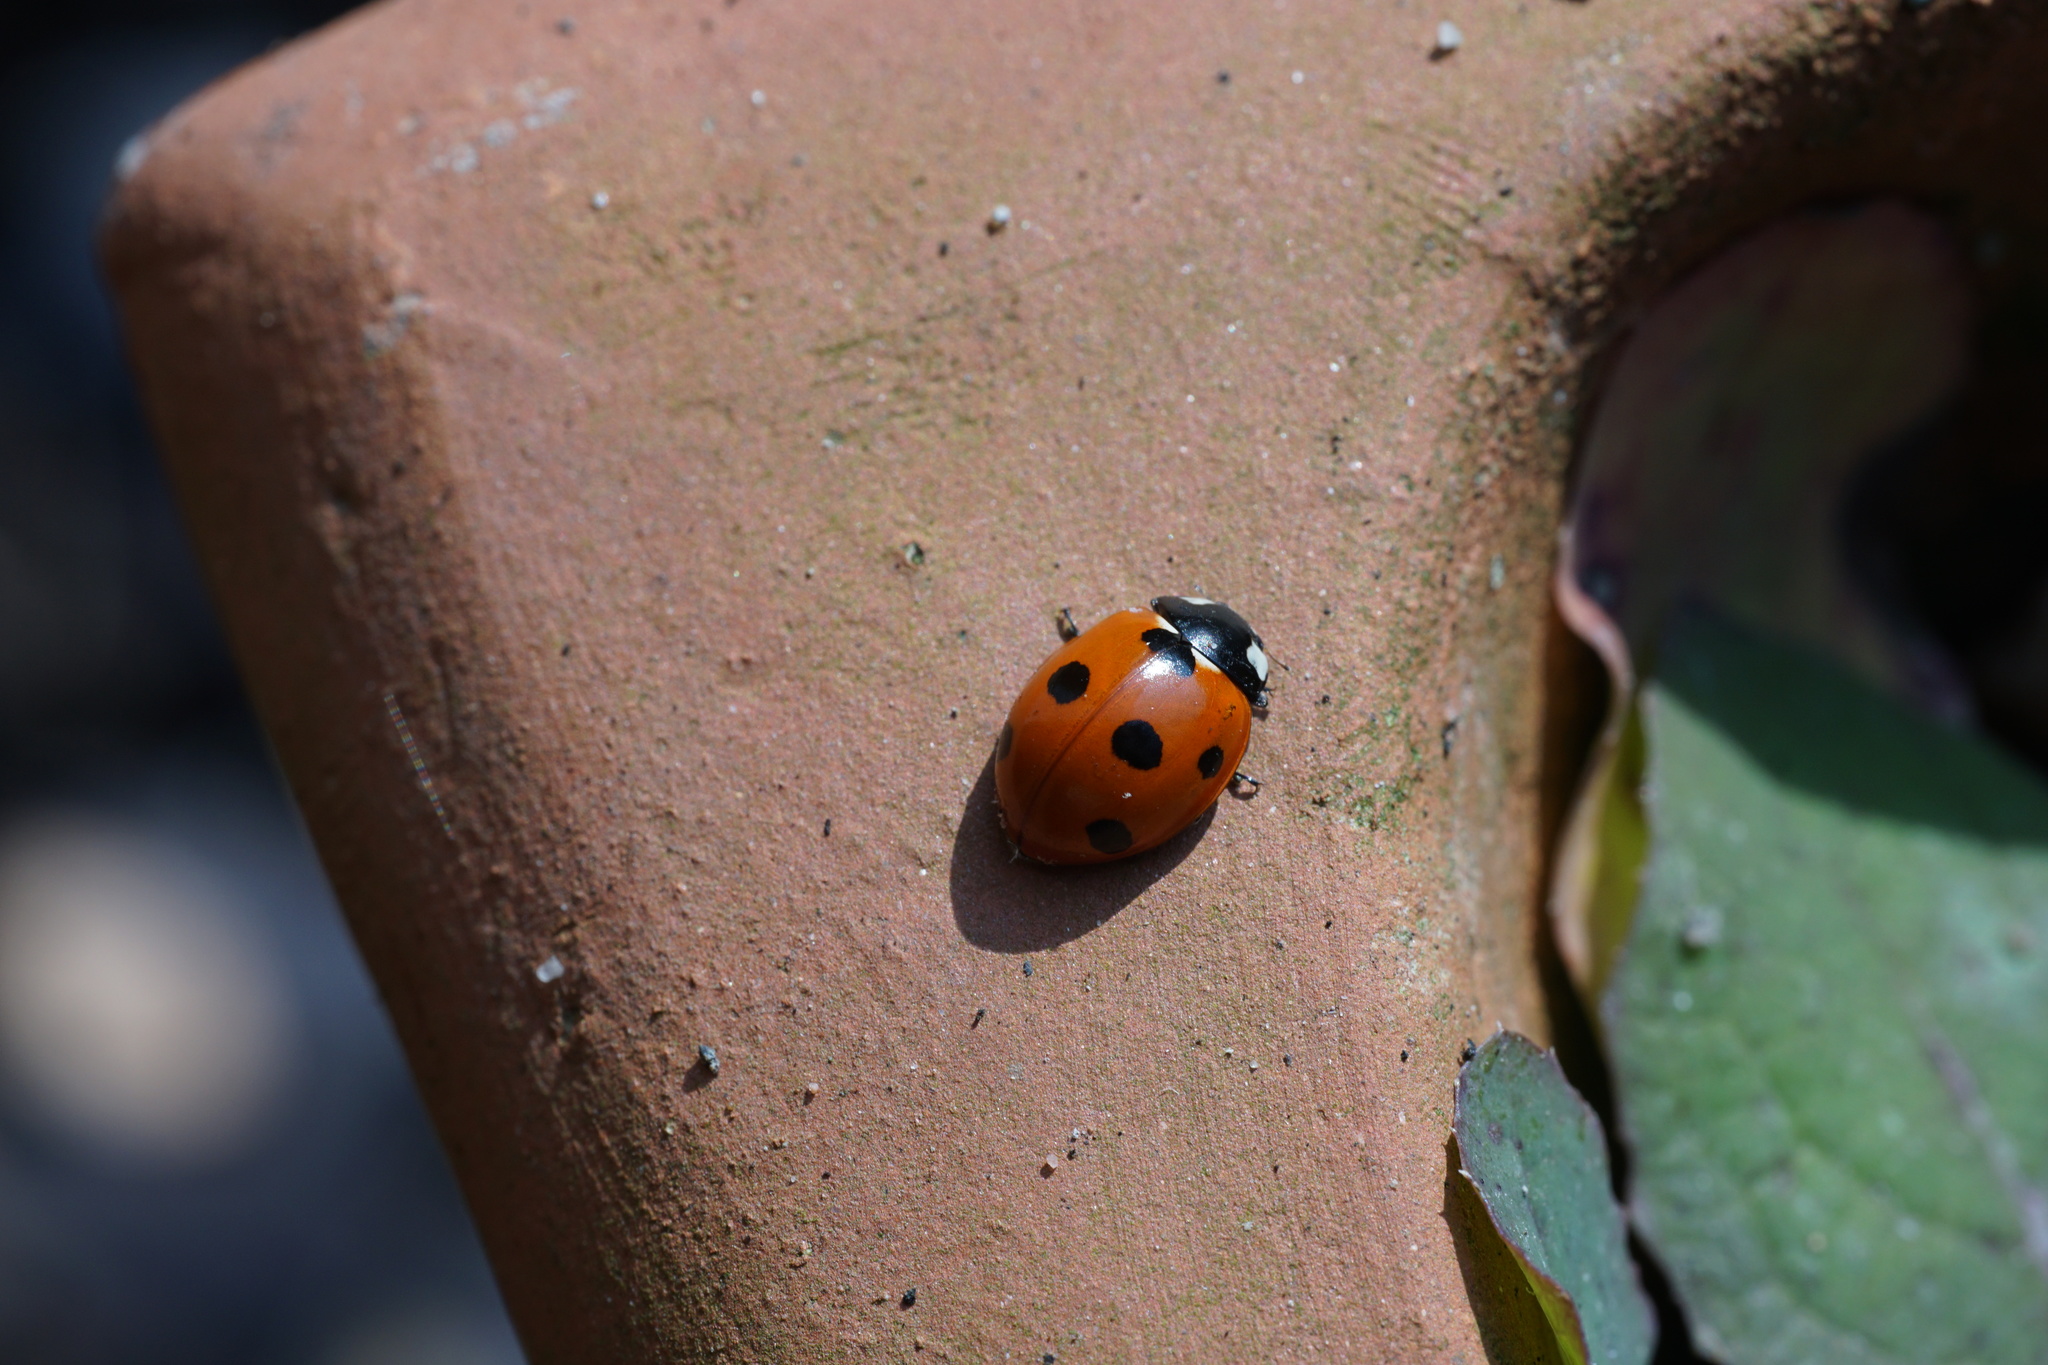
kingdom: Animalia
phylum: Arthropoda
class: Insecta
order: Coleoptera
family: Coccinellidae
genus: Coccinella
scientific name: Coccinella septempunctata
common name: Sevenspotted lady beetle
